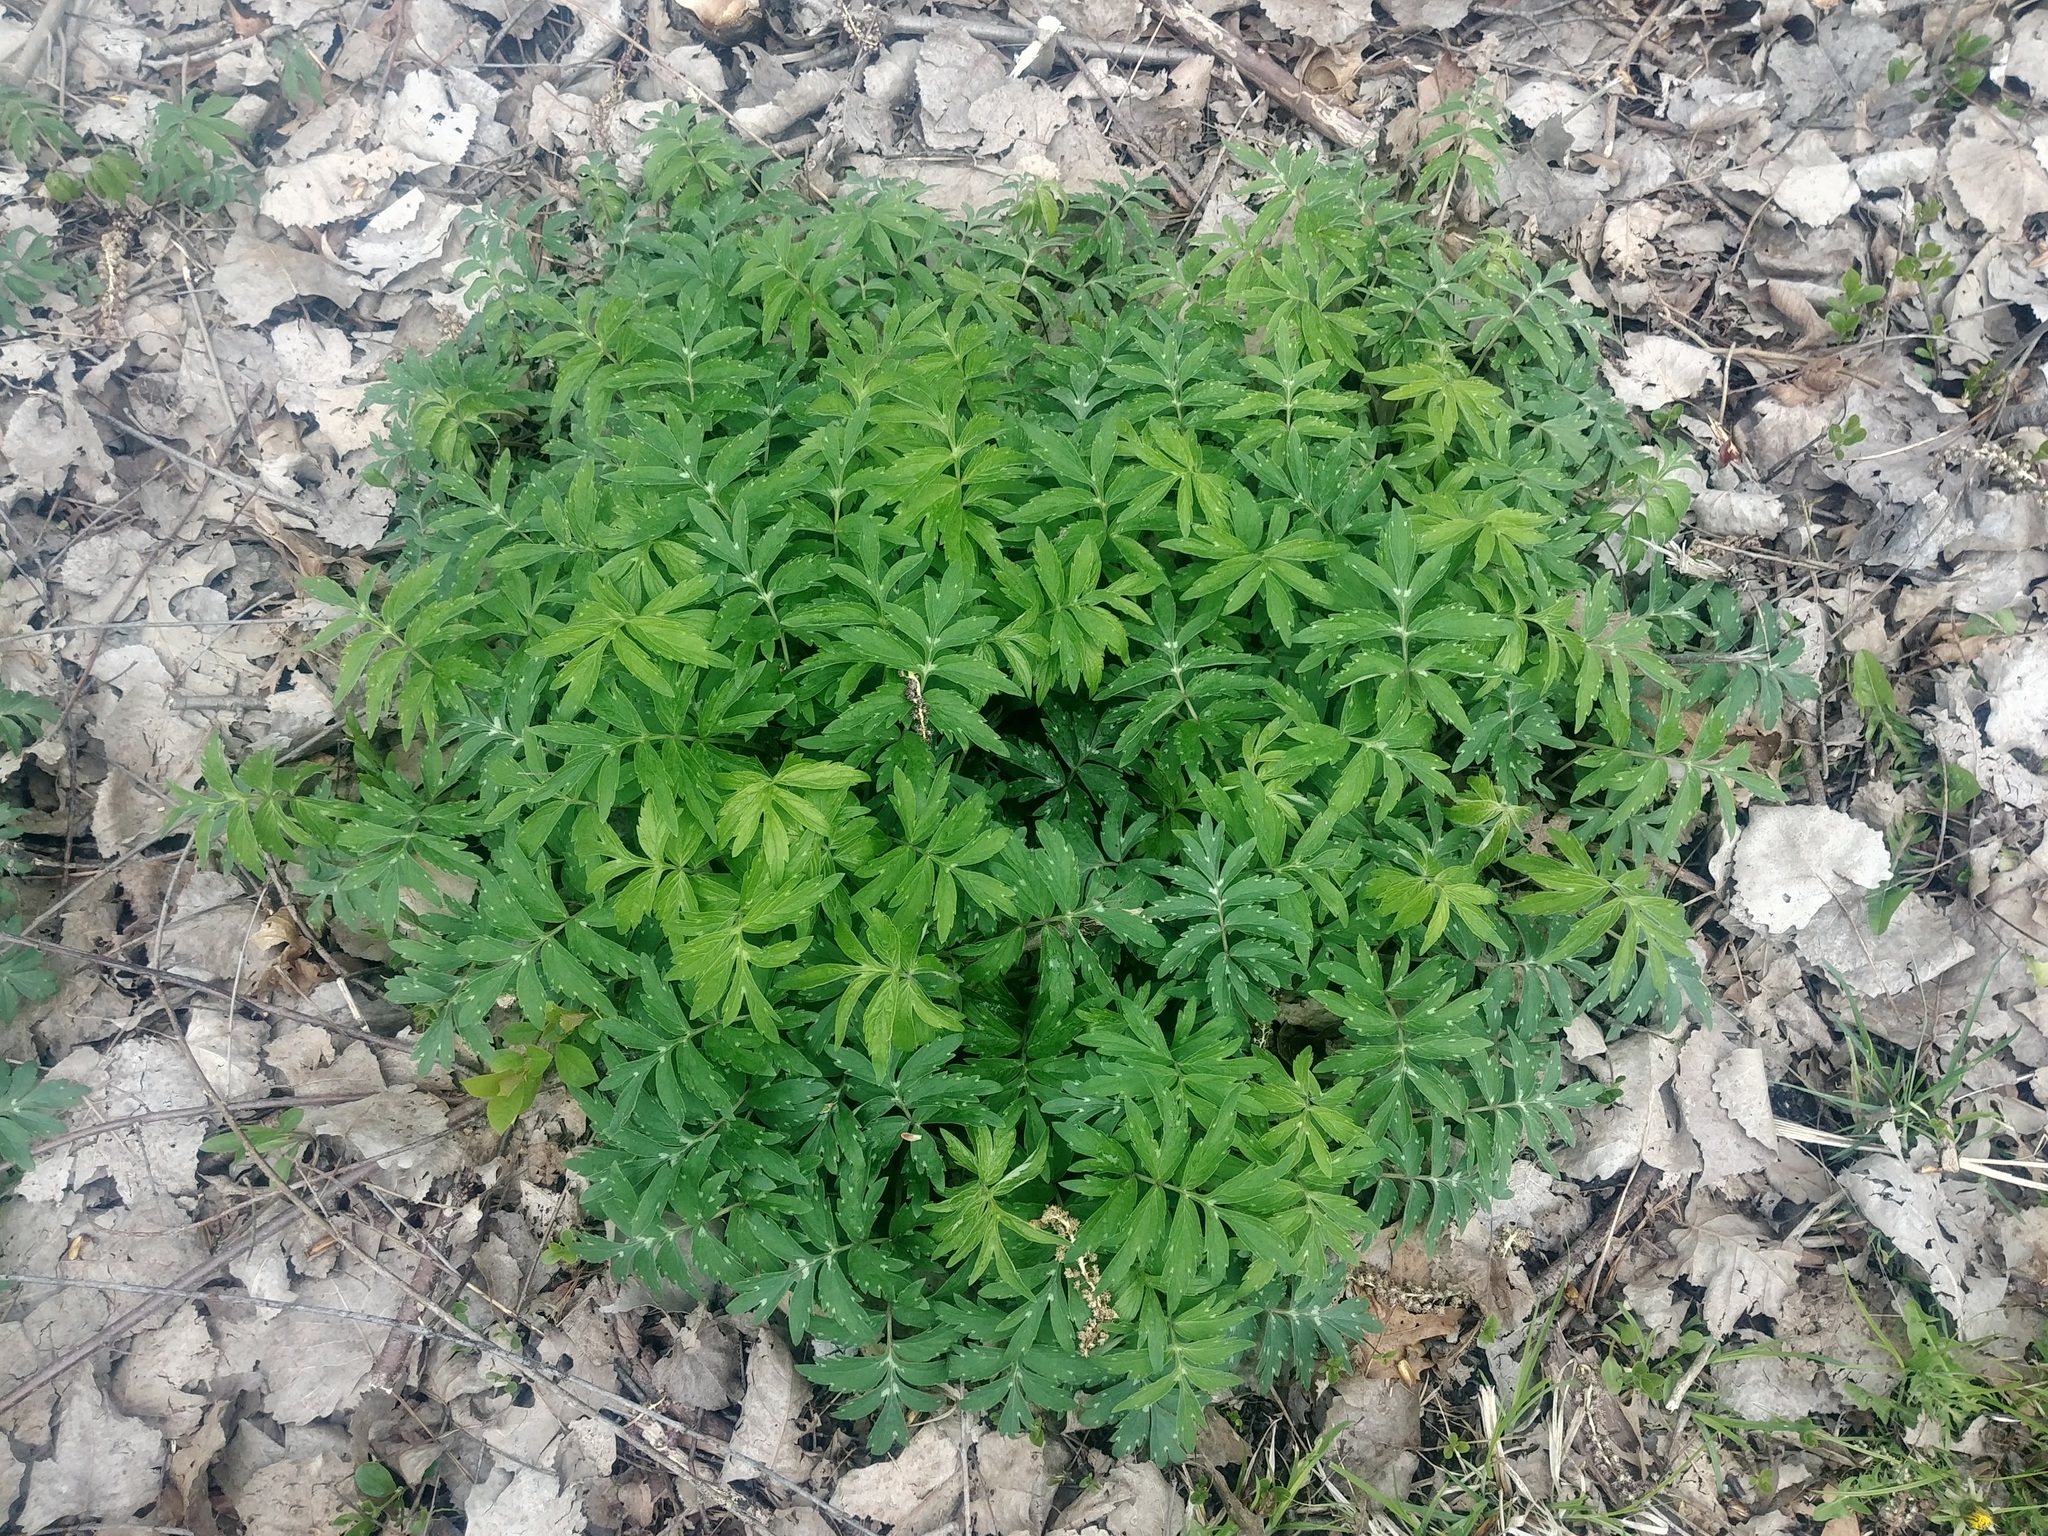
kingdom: Plantae
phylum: Tracheophyta
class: Magnoliopsida
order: Boraginales
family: Hydrophyllaceae
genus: Hydrophyllum
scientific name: Hydrophyllum virginianum
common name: Virginia waterleaf
